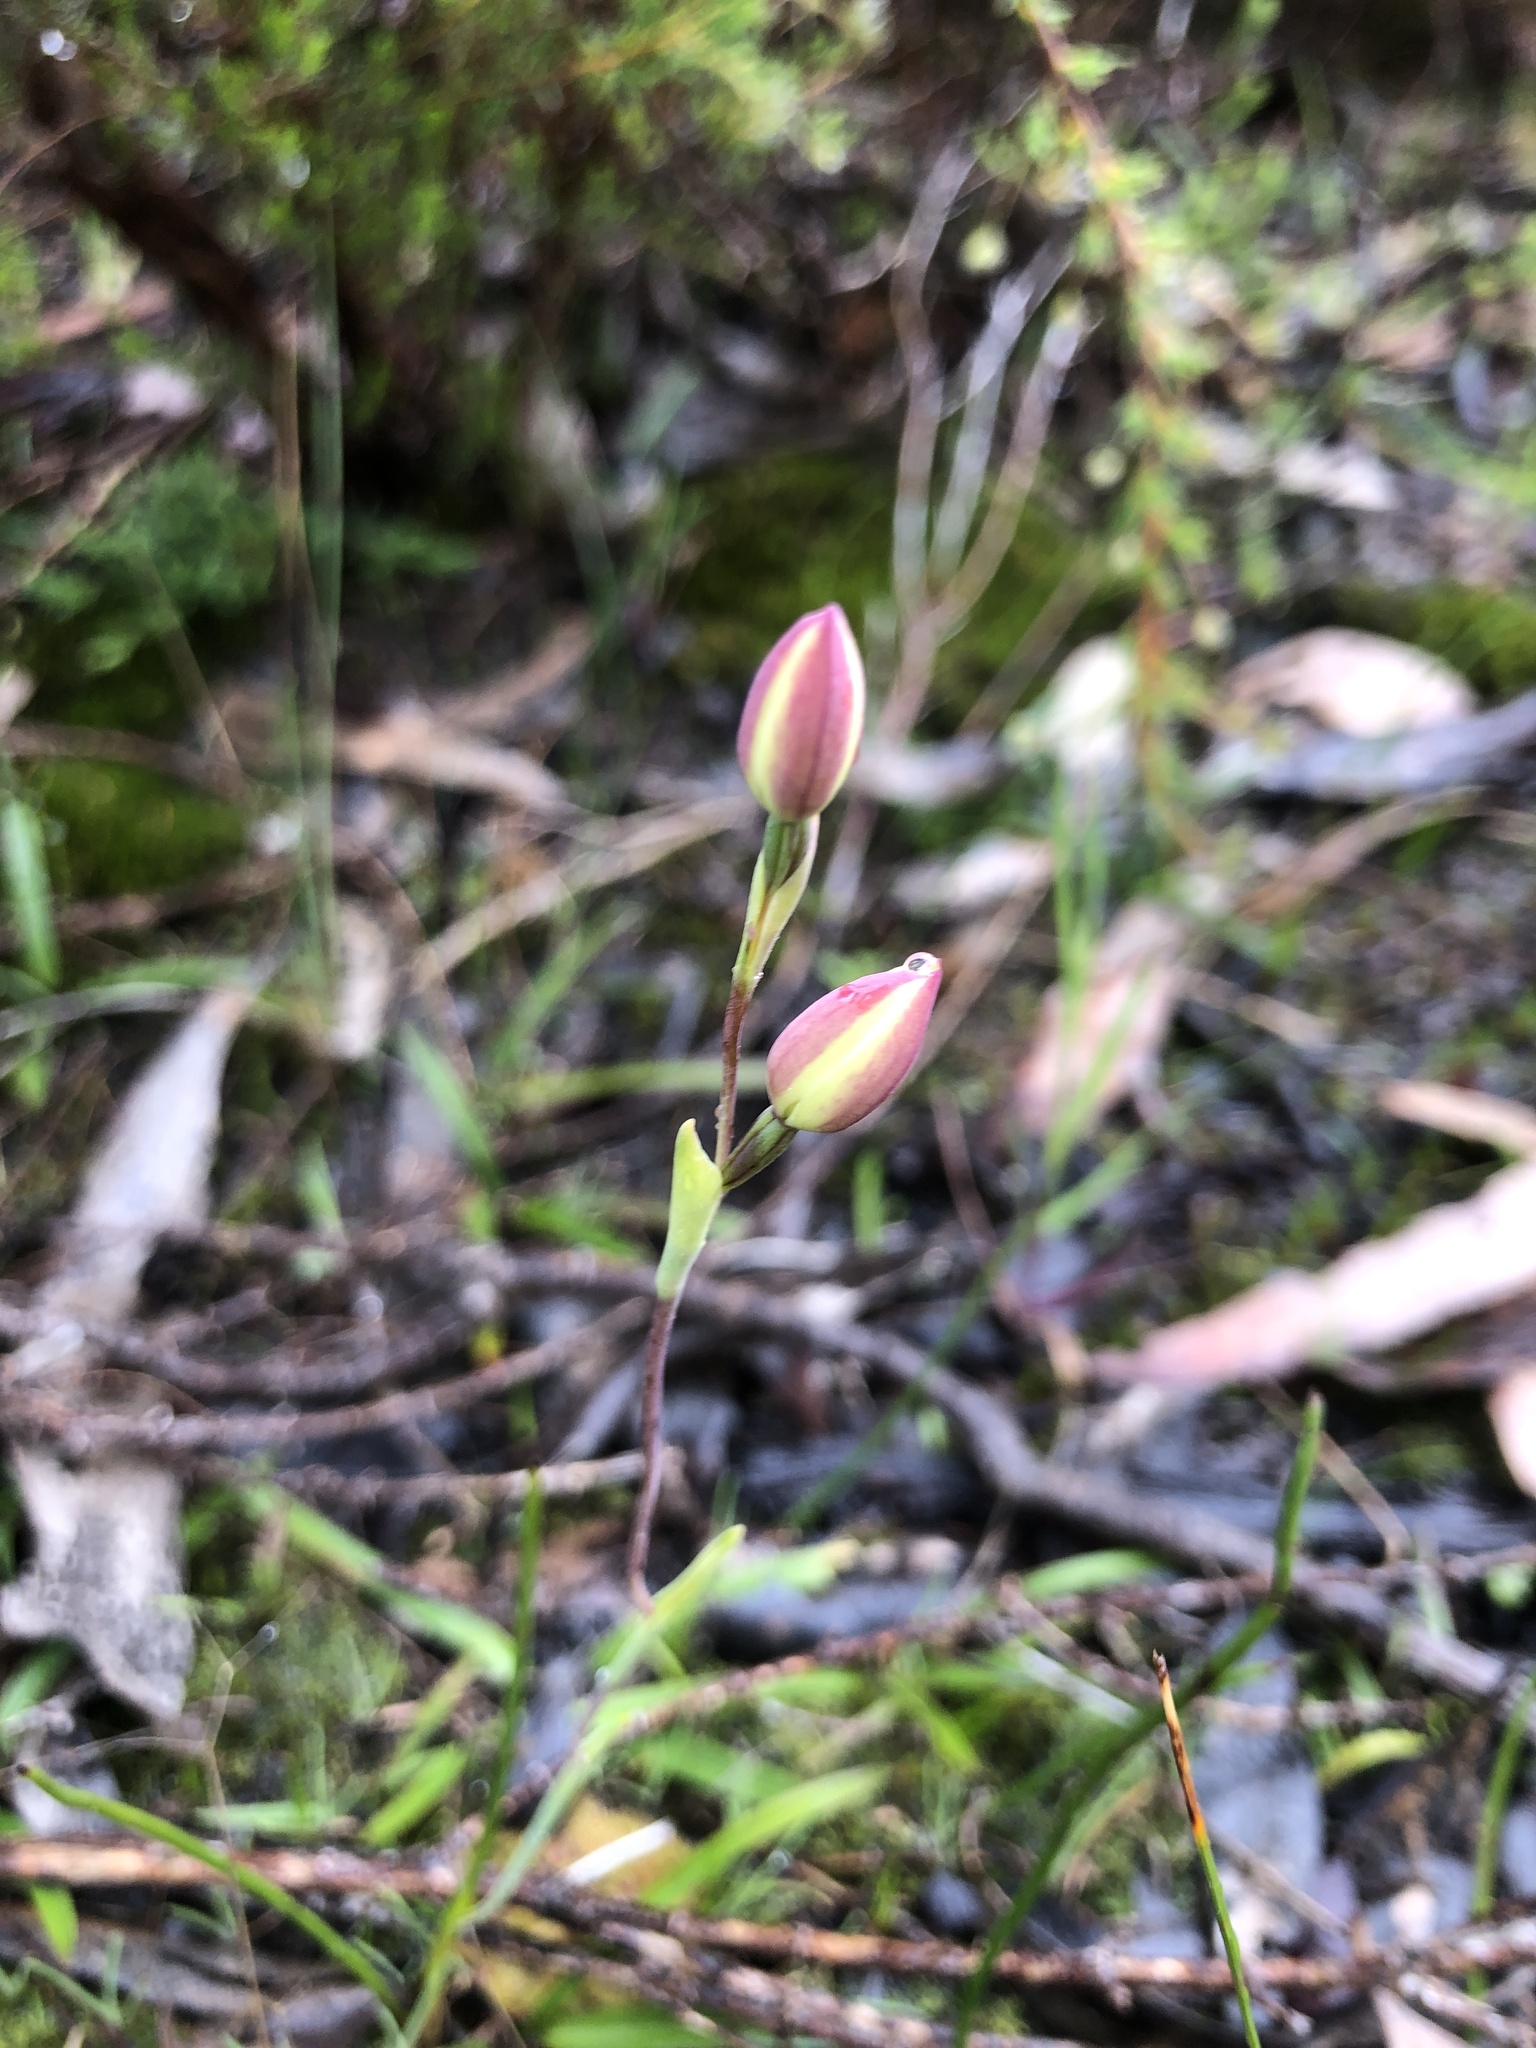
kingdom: Plantae
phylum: Tracheophyta
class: Liliopsida
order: Asparagales
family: Orchidaceae
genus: Thelymitra
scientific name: Thelymitra antennifera
